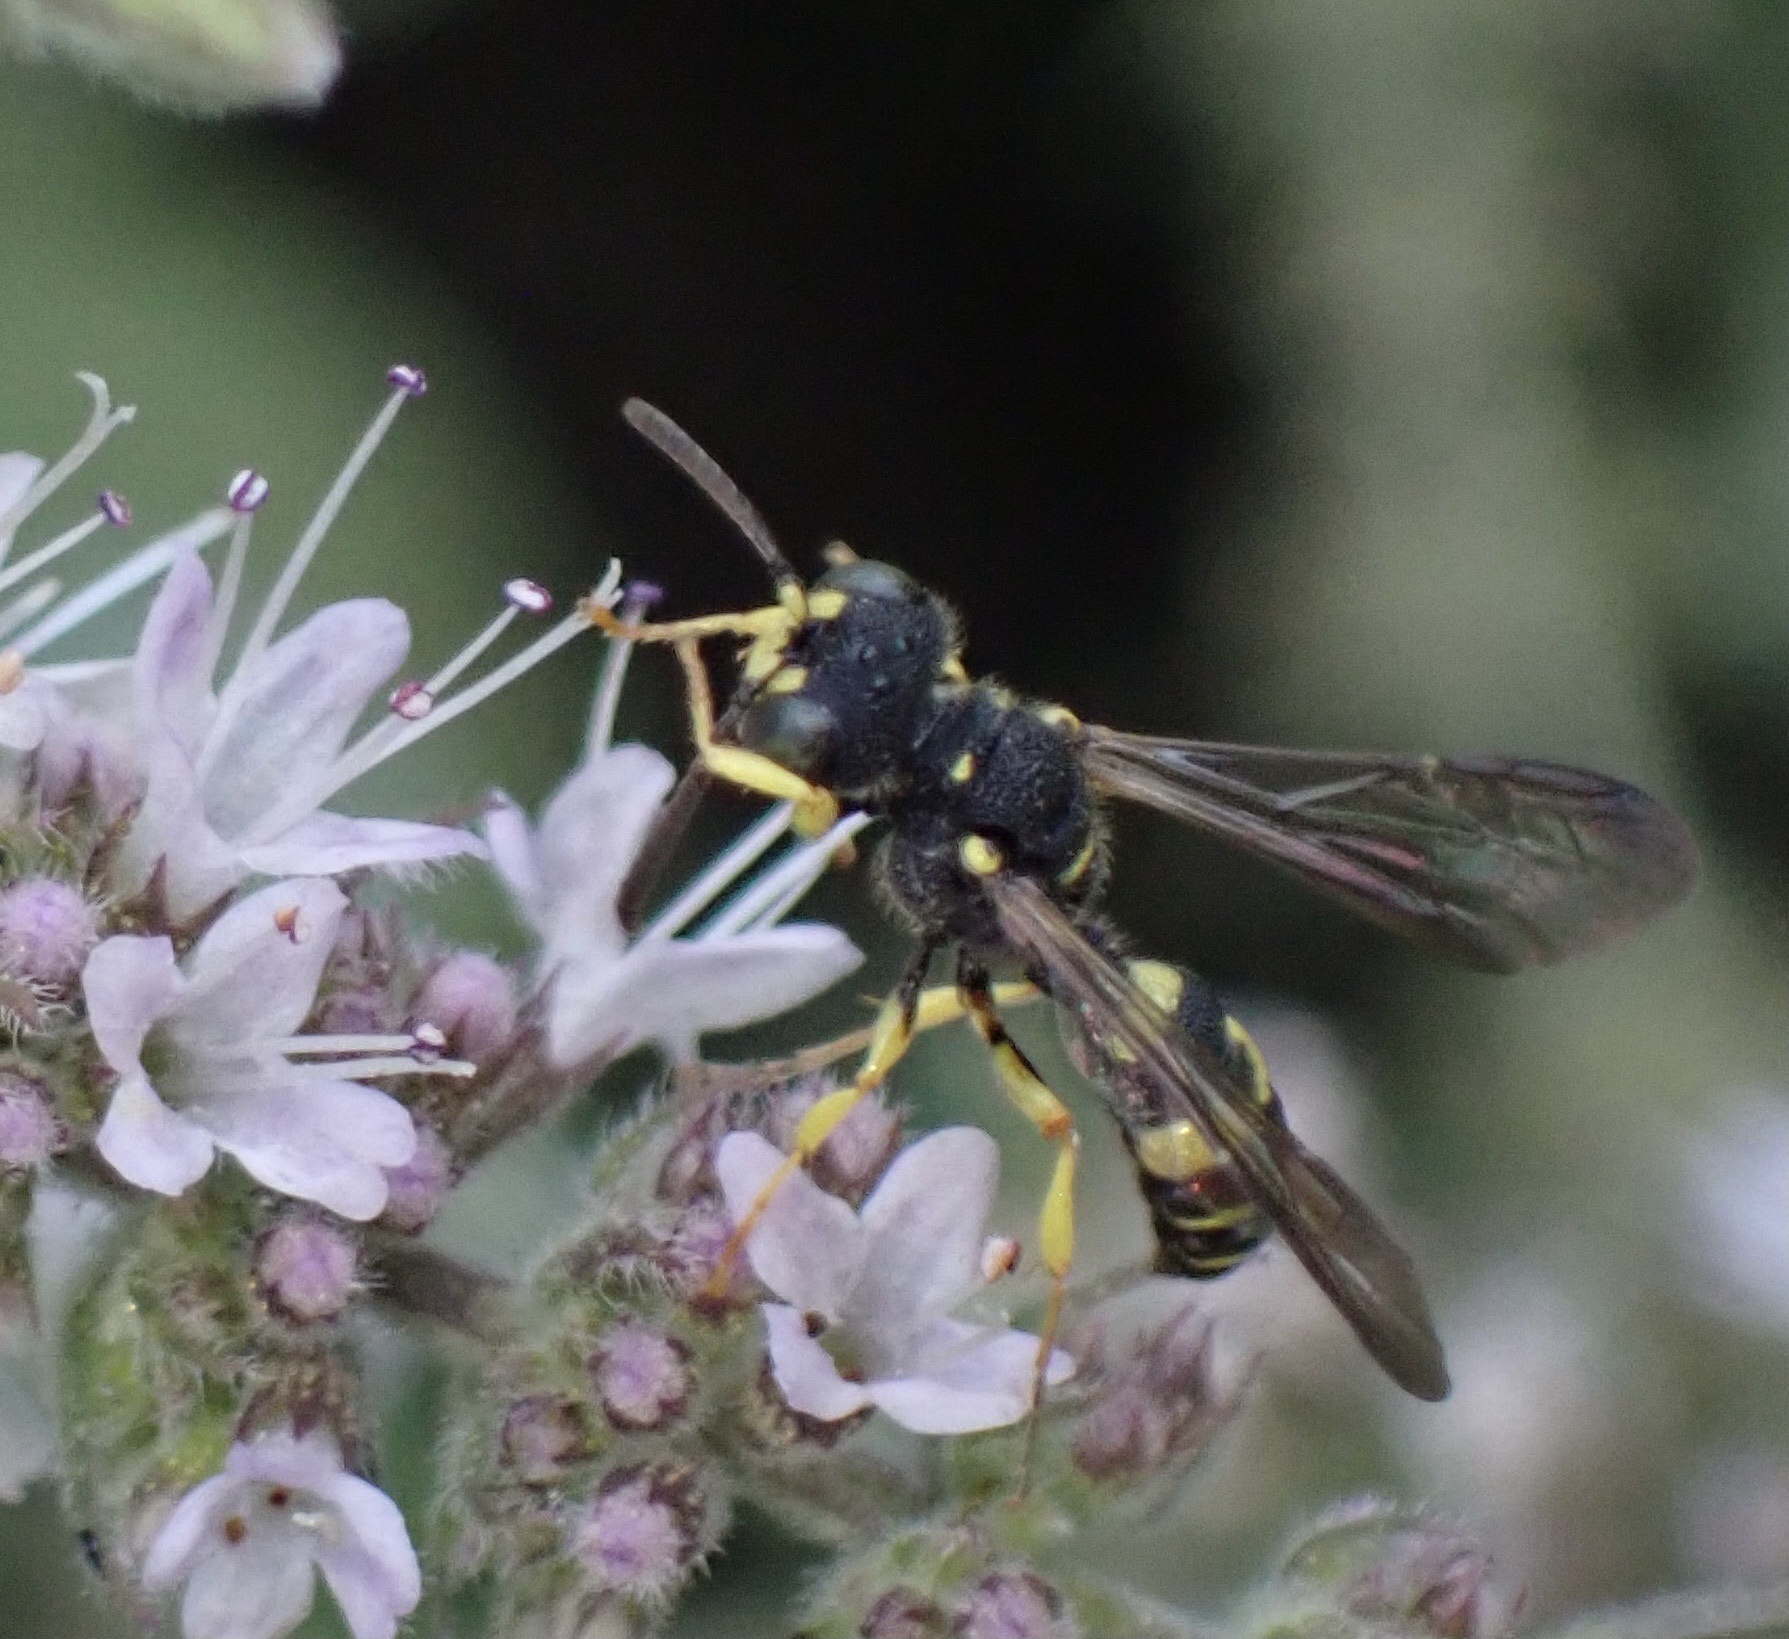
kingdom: Animalia
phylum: Arthropoda
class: Insecta
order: Hymenoptera
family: Crabronidae
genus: Cerceris
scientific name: Cerceris rybyensis
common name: Ornate tailed digger wasp
